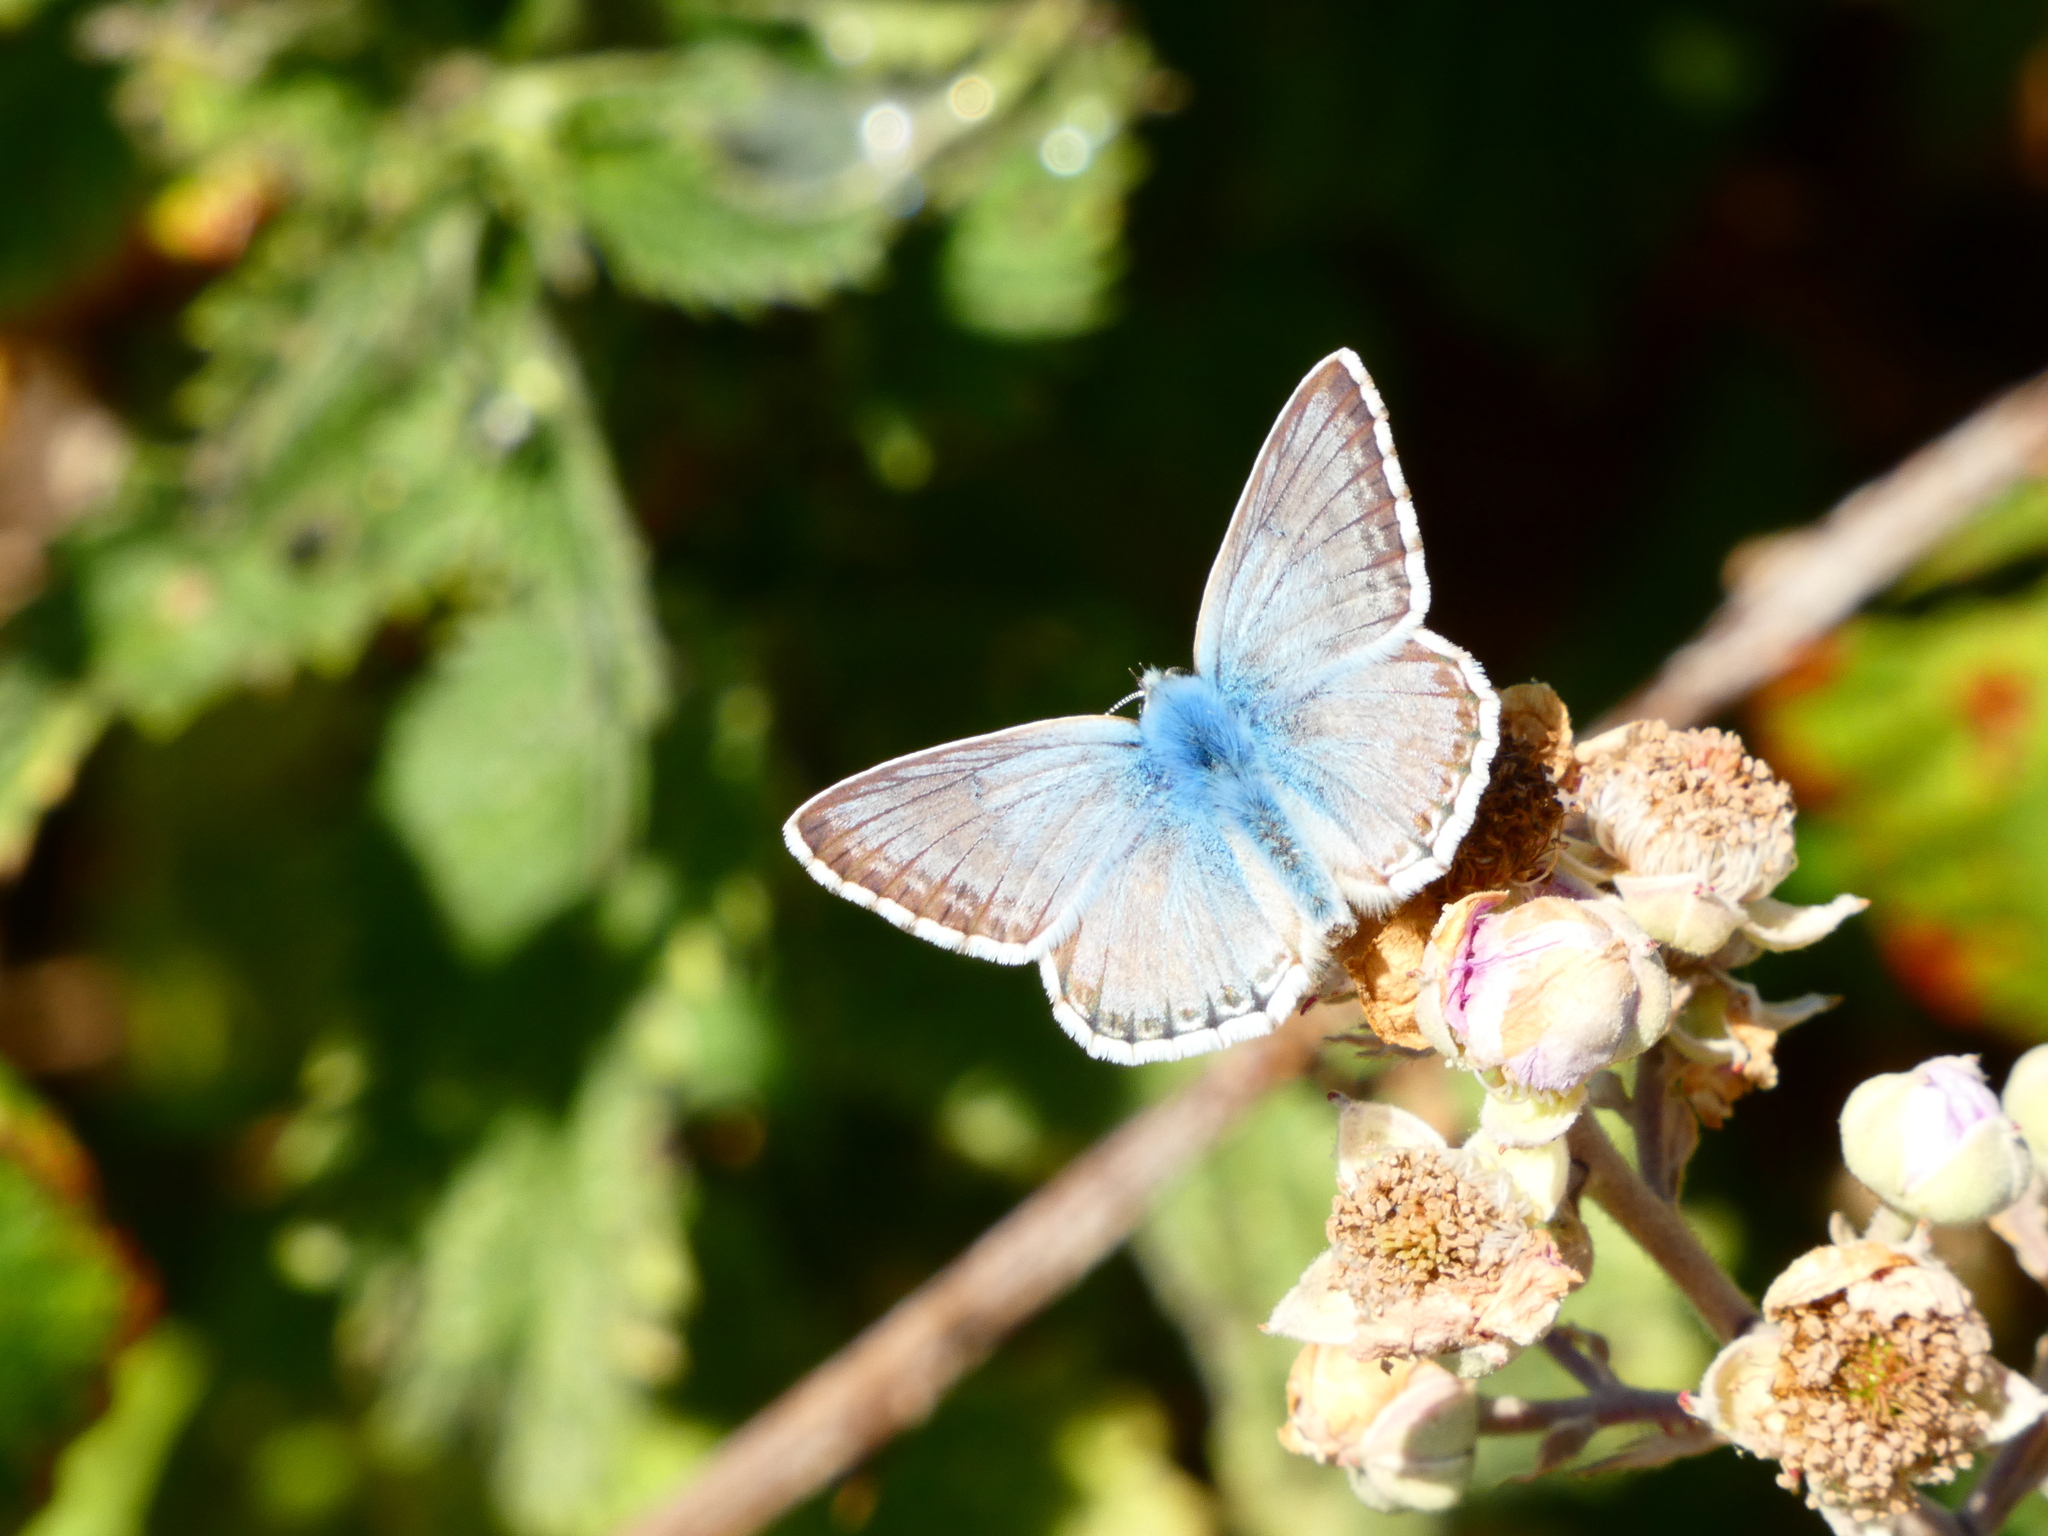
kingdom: Animalia
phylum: Arthropoda
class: Insecta
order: Lepidoptera
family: Lycaenidae
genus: Lysandra
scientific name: Lysandra coridon
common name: Chalkhill blue
